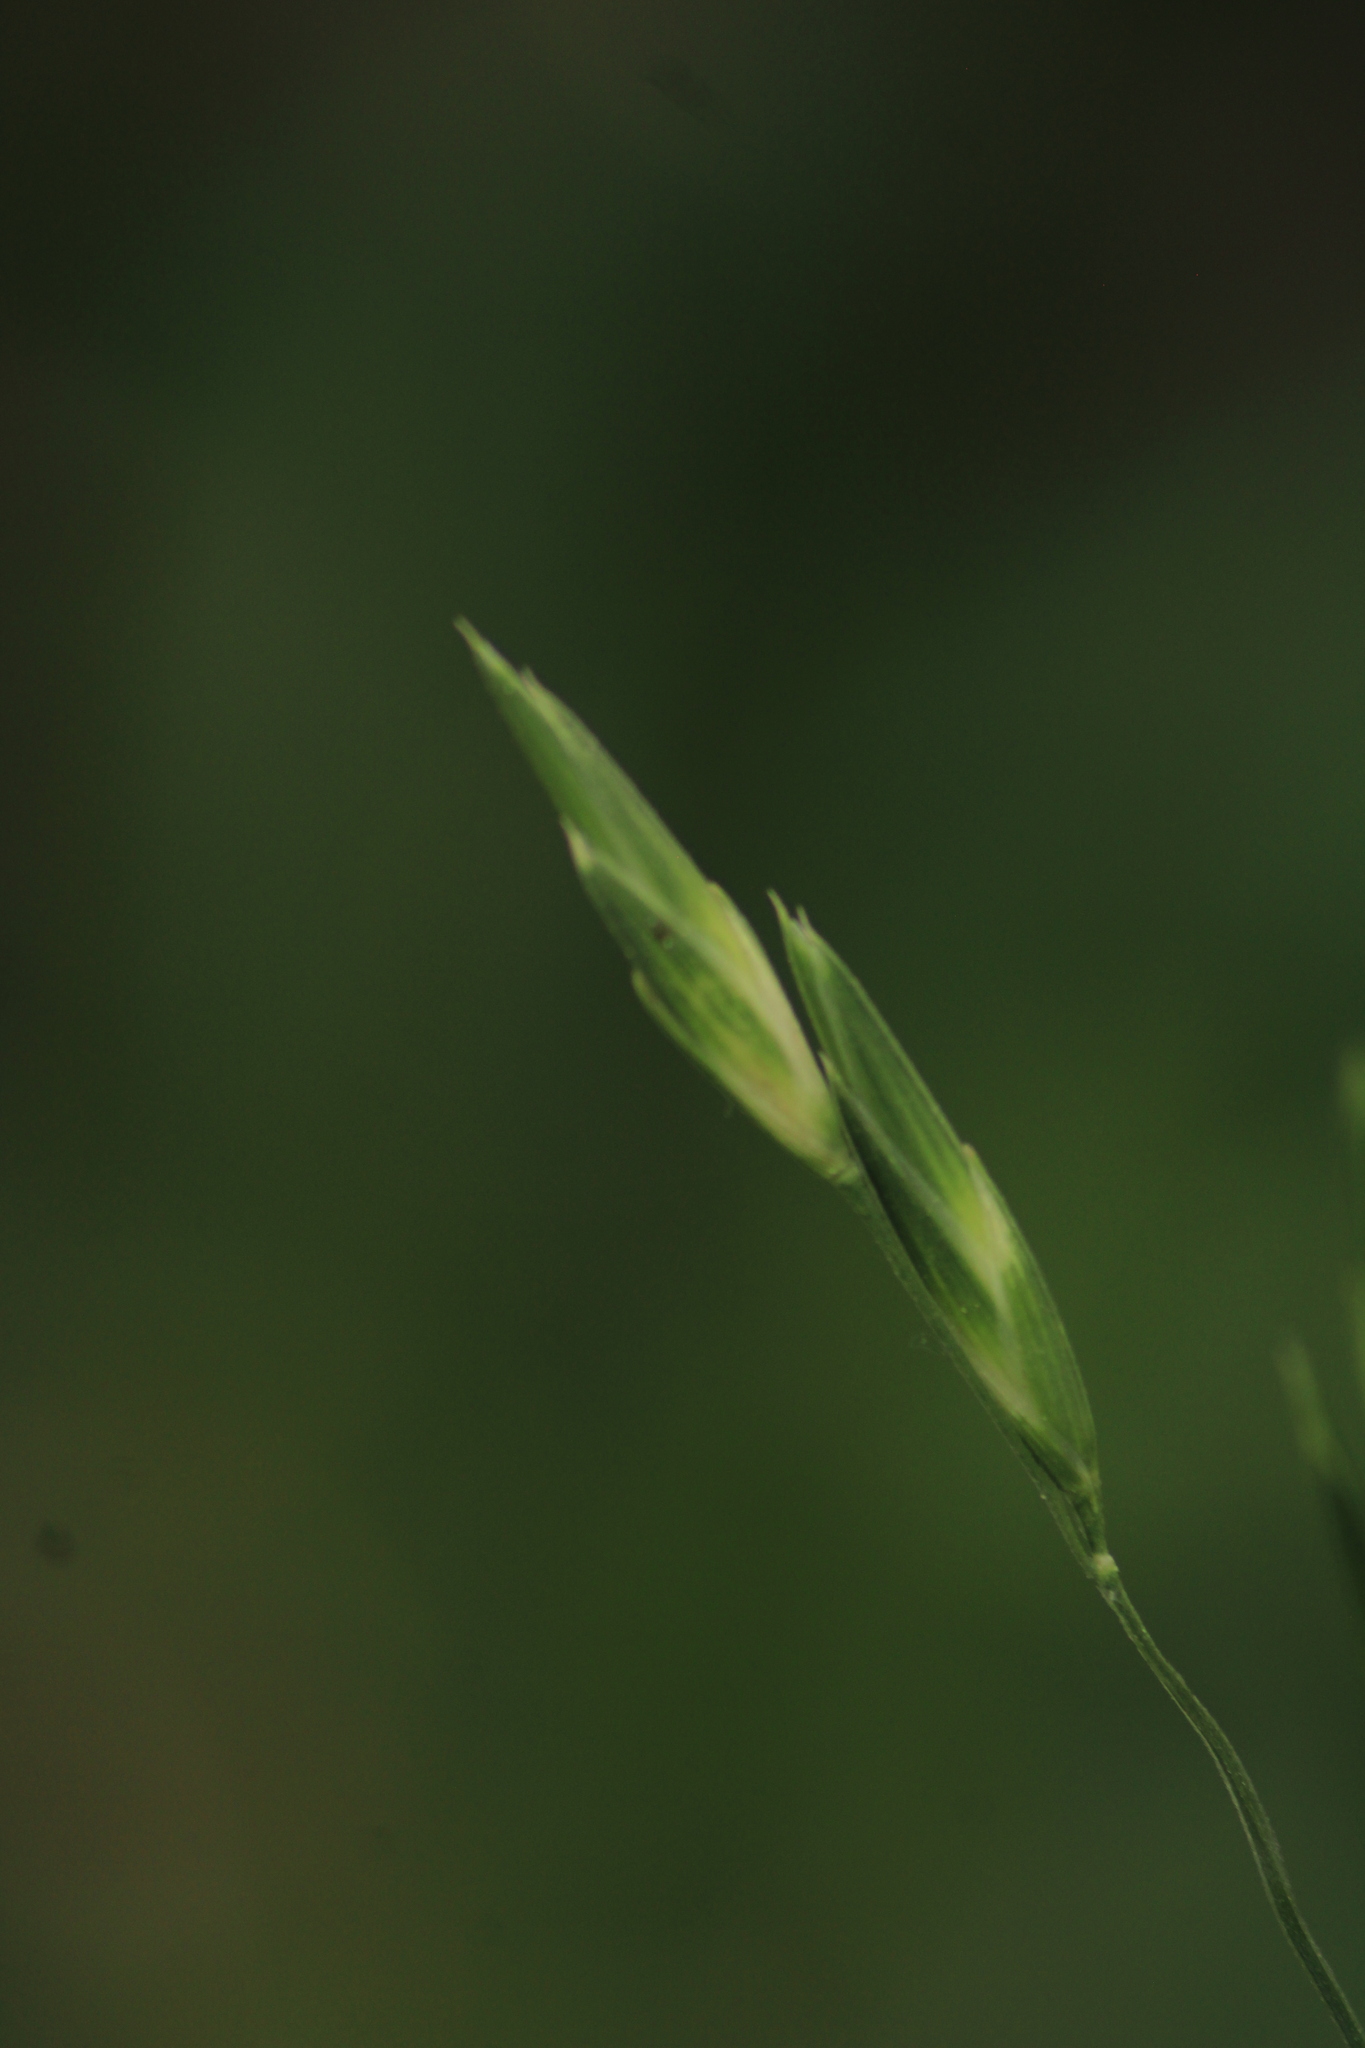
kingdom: Plantae
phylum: Tracheophyta
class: Liliopsida
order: Poales
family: Poaceae
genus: Bromus
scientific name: Bromus catharticus
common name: Rescuegrass
